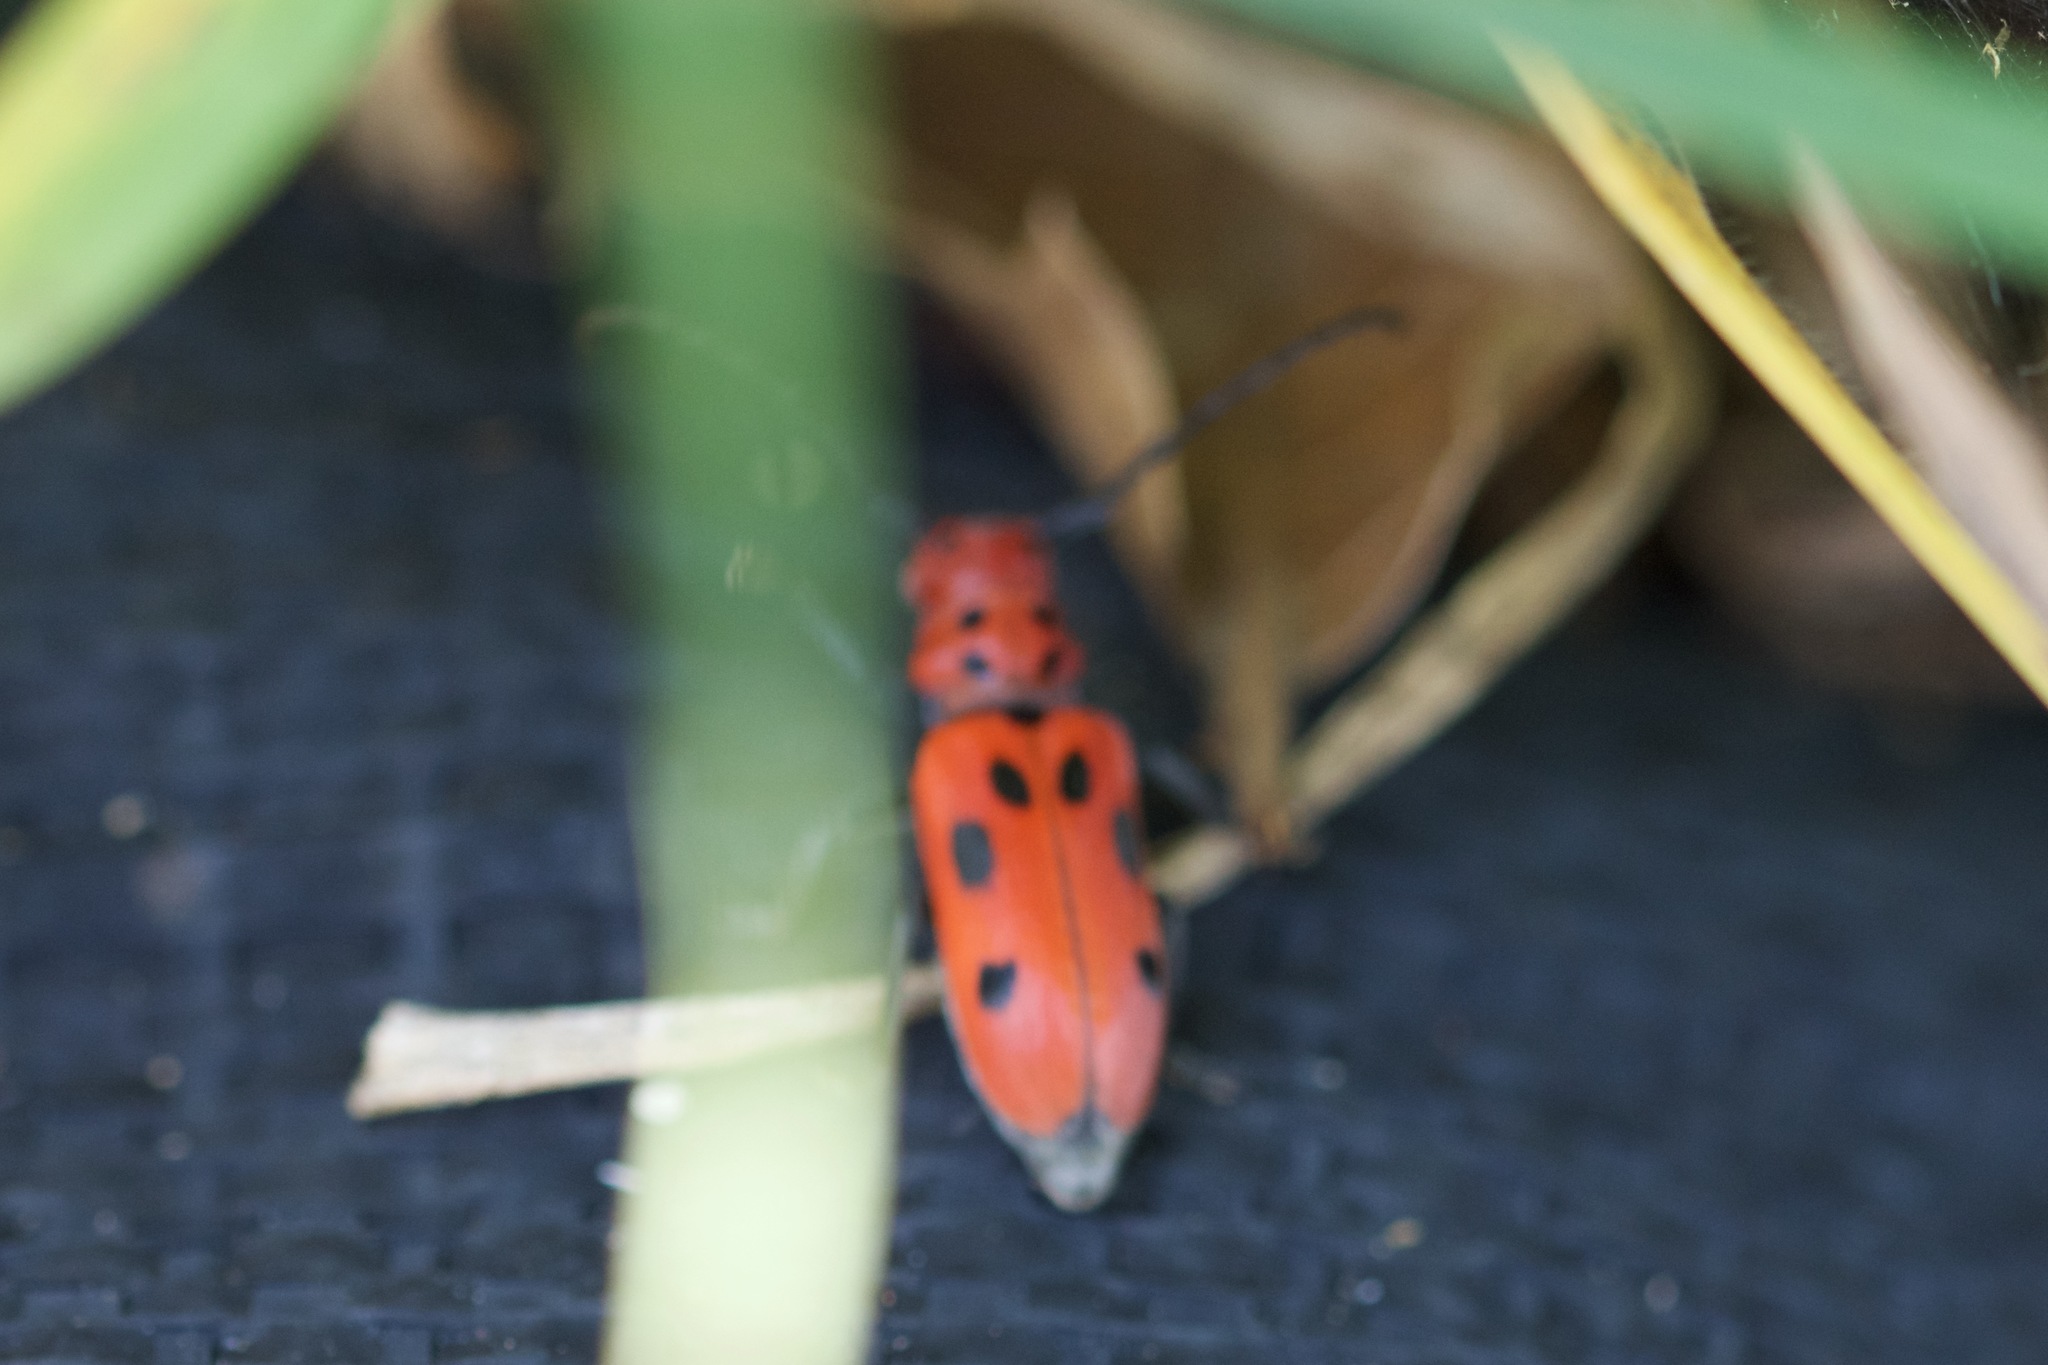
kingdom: Animalia
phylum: Arthropoda
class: Insecta
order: Coleoptera
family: Cerambycidae
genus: Tetraopes
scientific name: Tetraopes tetrophthalmus
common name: Red milkweed beetle
